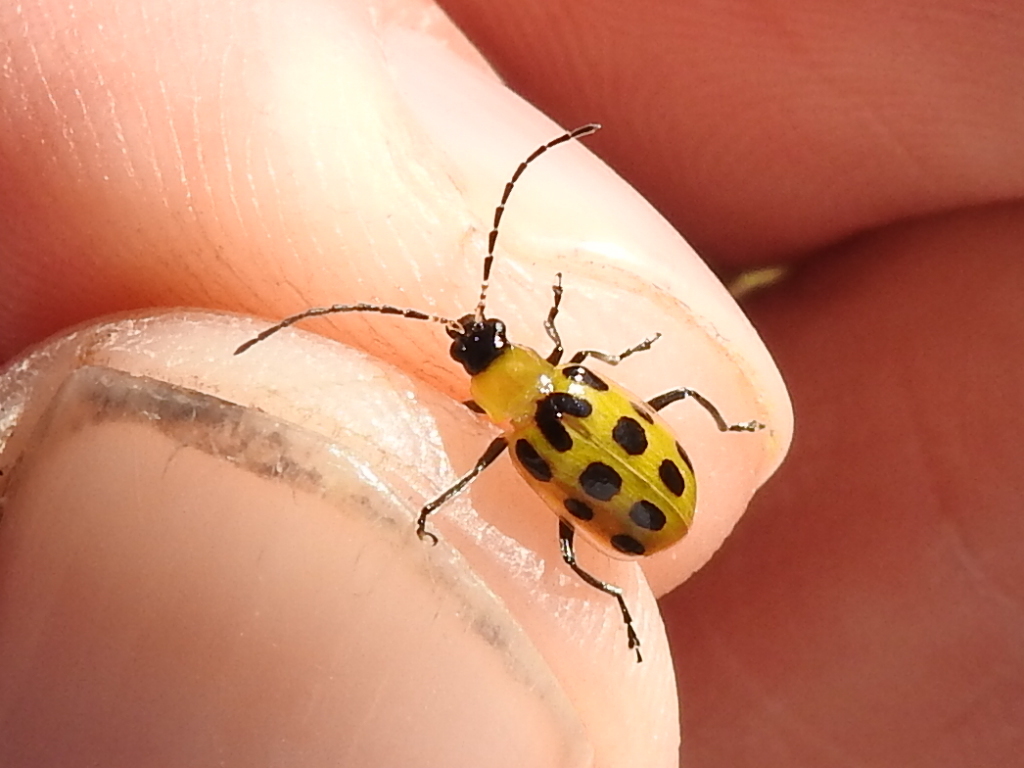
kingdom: Animalia
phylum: Arthropoda
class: Insecta
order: Coleoptera
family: Chrysomelidae
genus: Diabrotica
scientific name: Diabrotica undecimpunctata
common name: Spotted cucumber beetle
